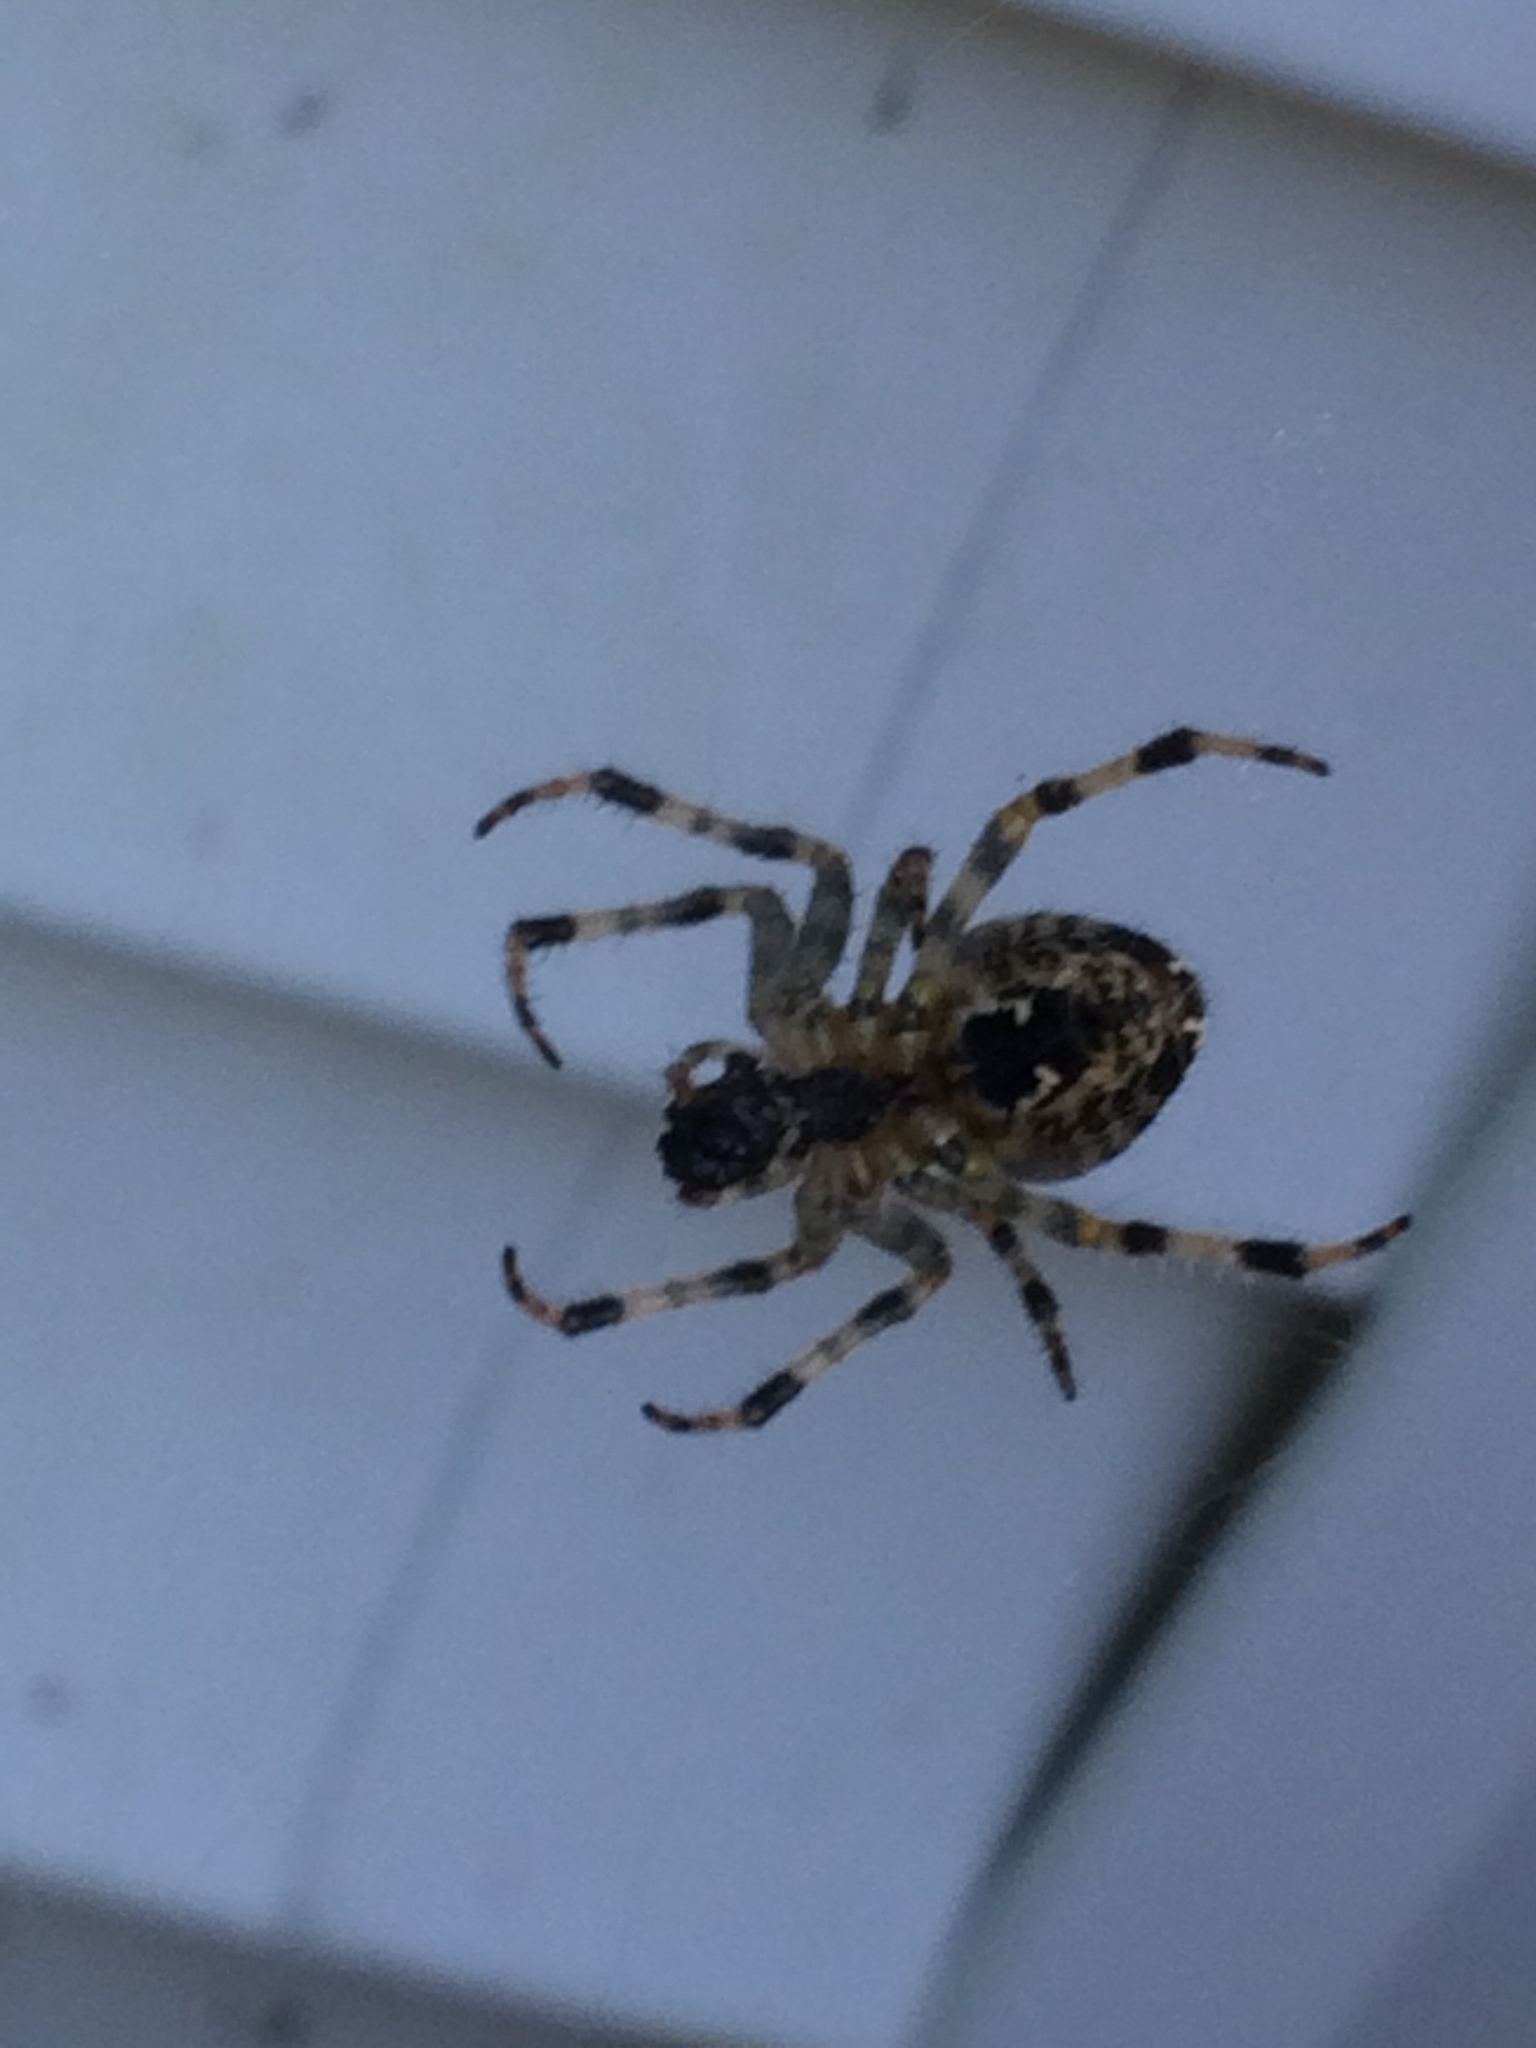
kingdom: Animalia
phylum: Arthropoda
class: Arachnida
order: Araneae
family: Araneidae
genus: Araneus
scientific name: Araneus diadematus
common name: Cross orbweaver
